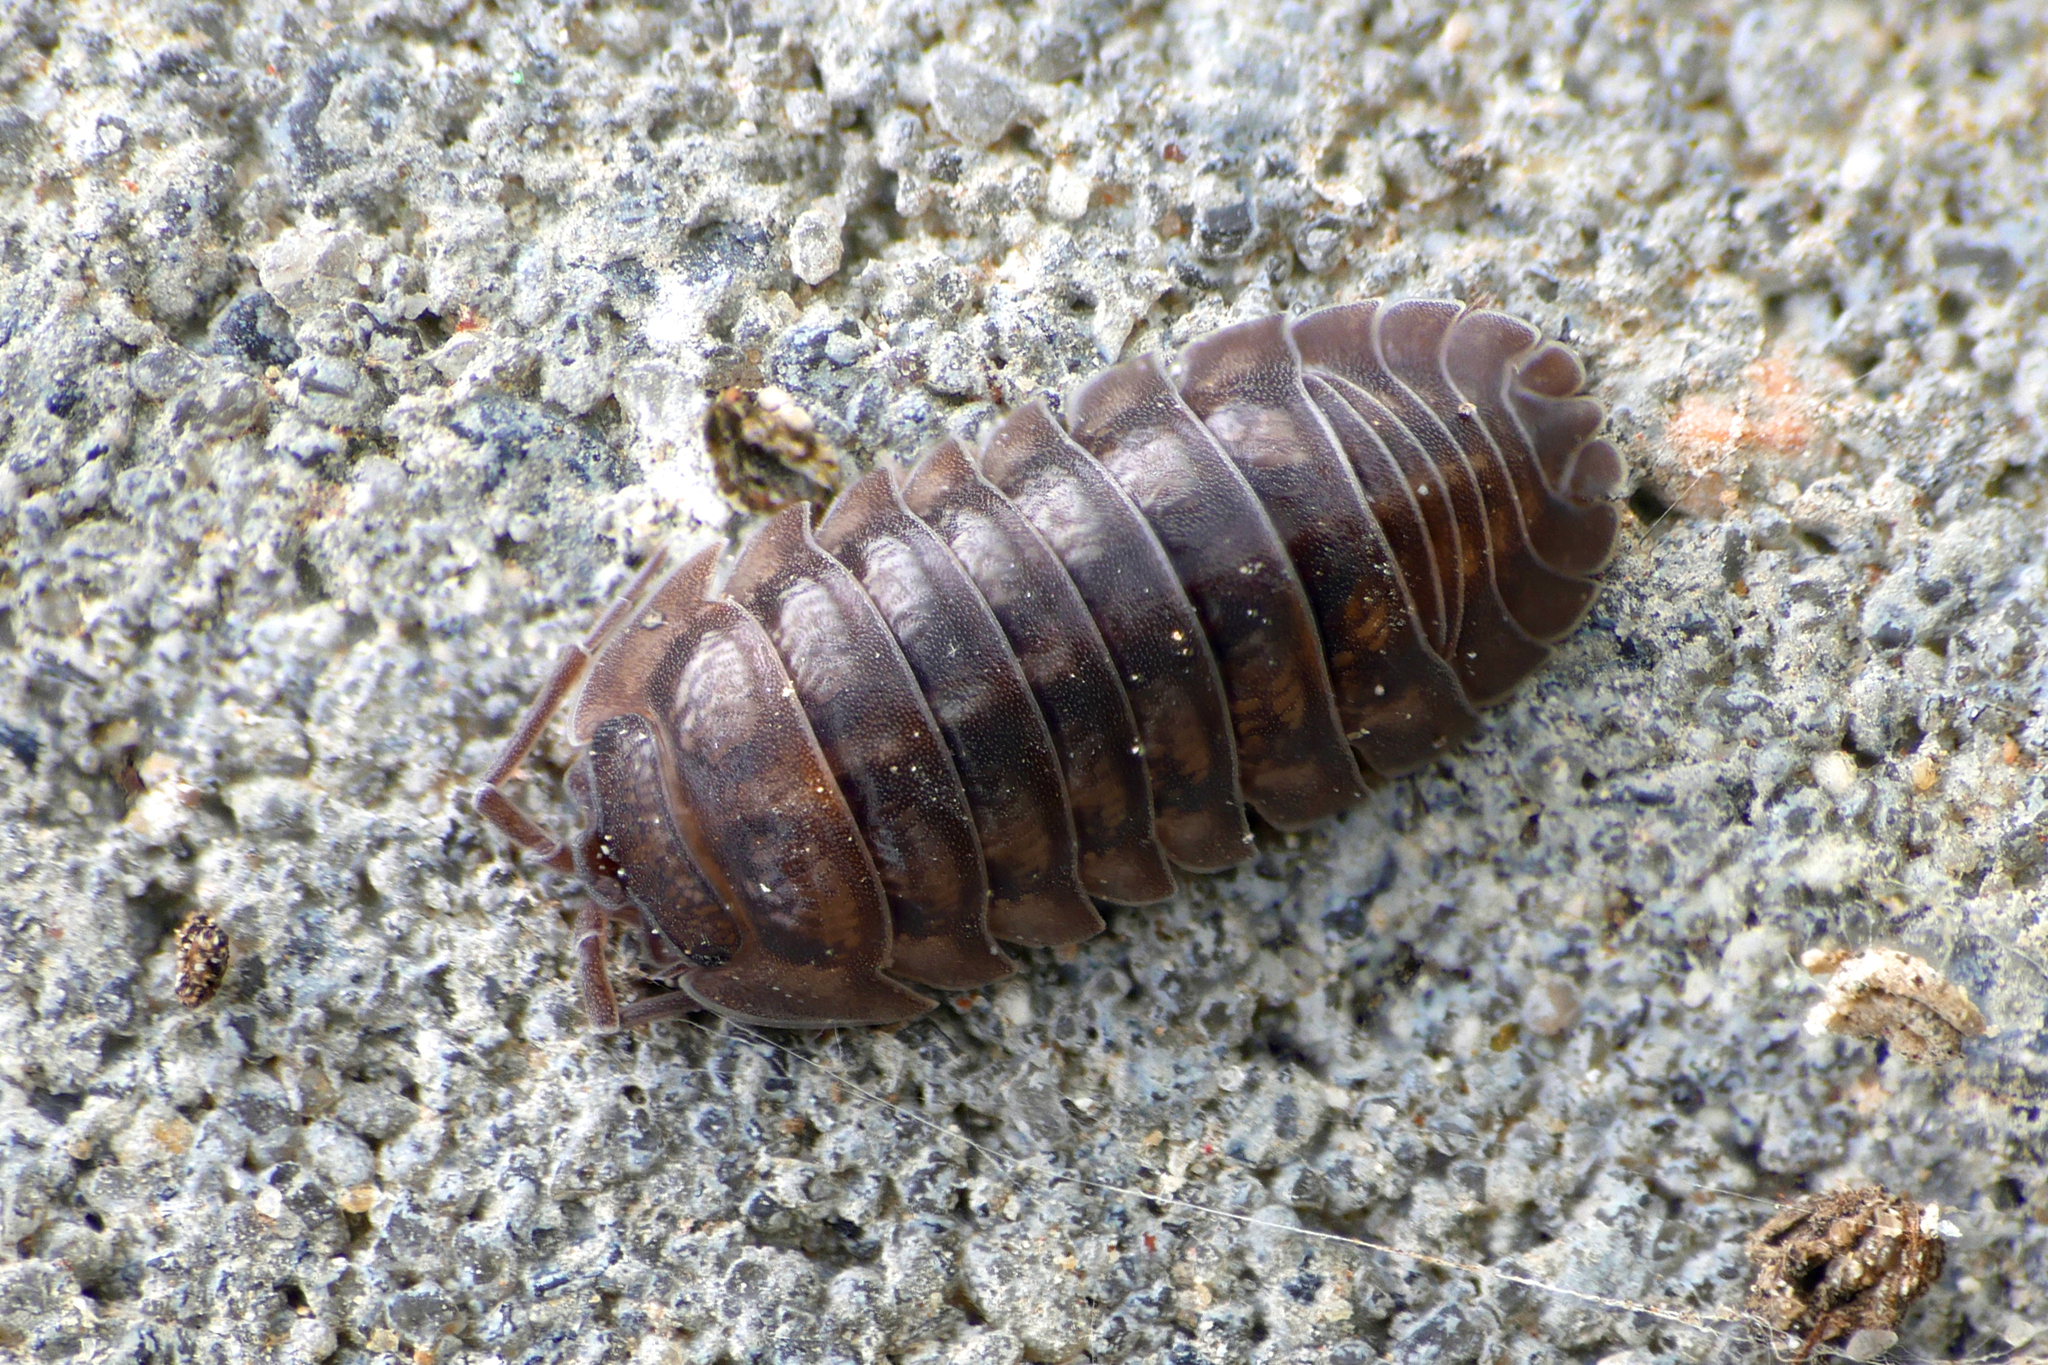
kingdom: Animalia
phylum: Arthropoda
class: Malacostraca
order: Isopoda
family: Armadillidiidae
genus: Armadillidium
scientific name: Armadillidium nasatum
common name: Isopod
